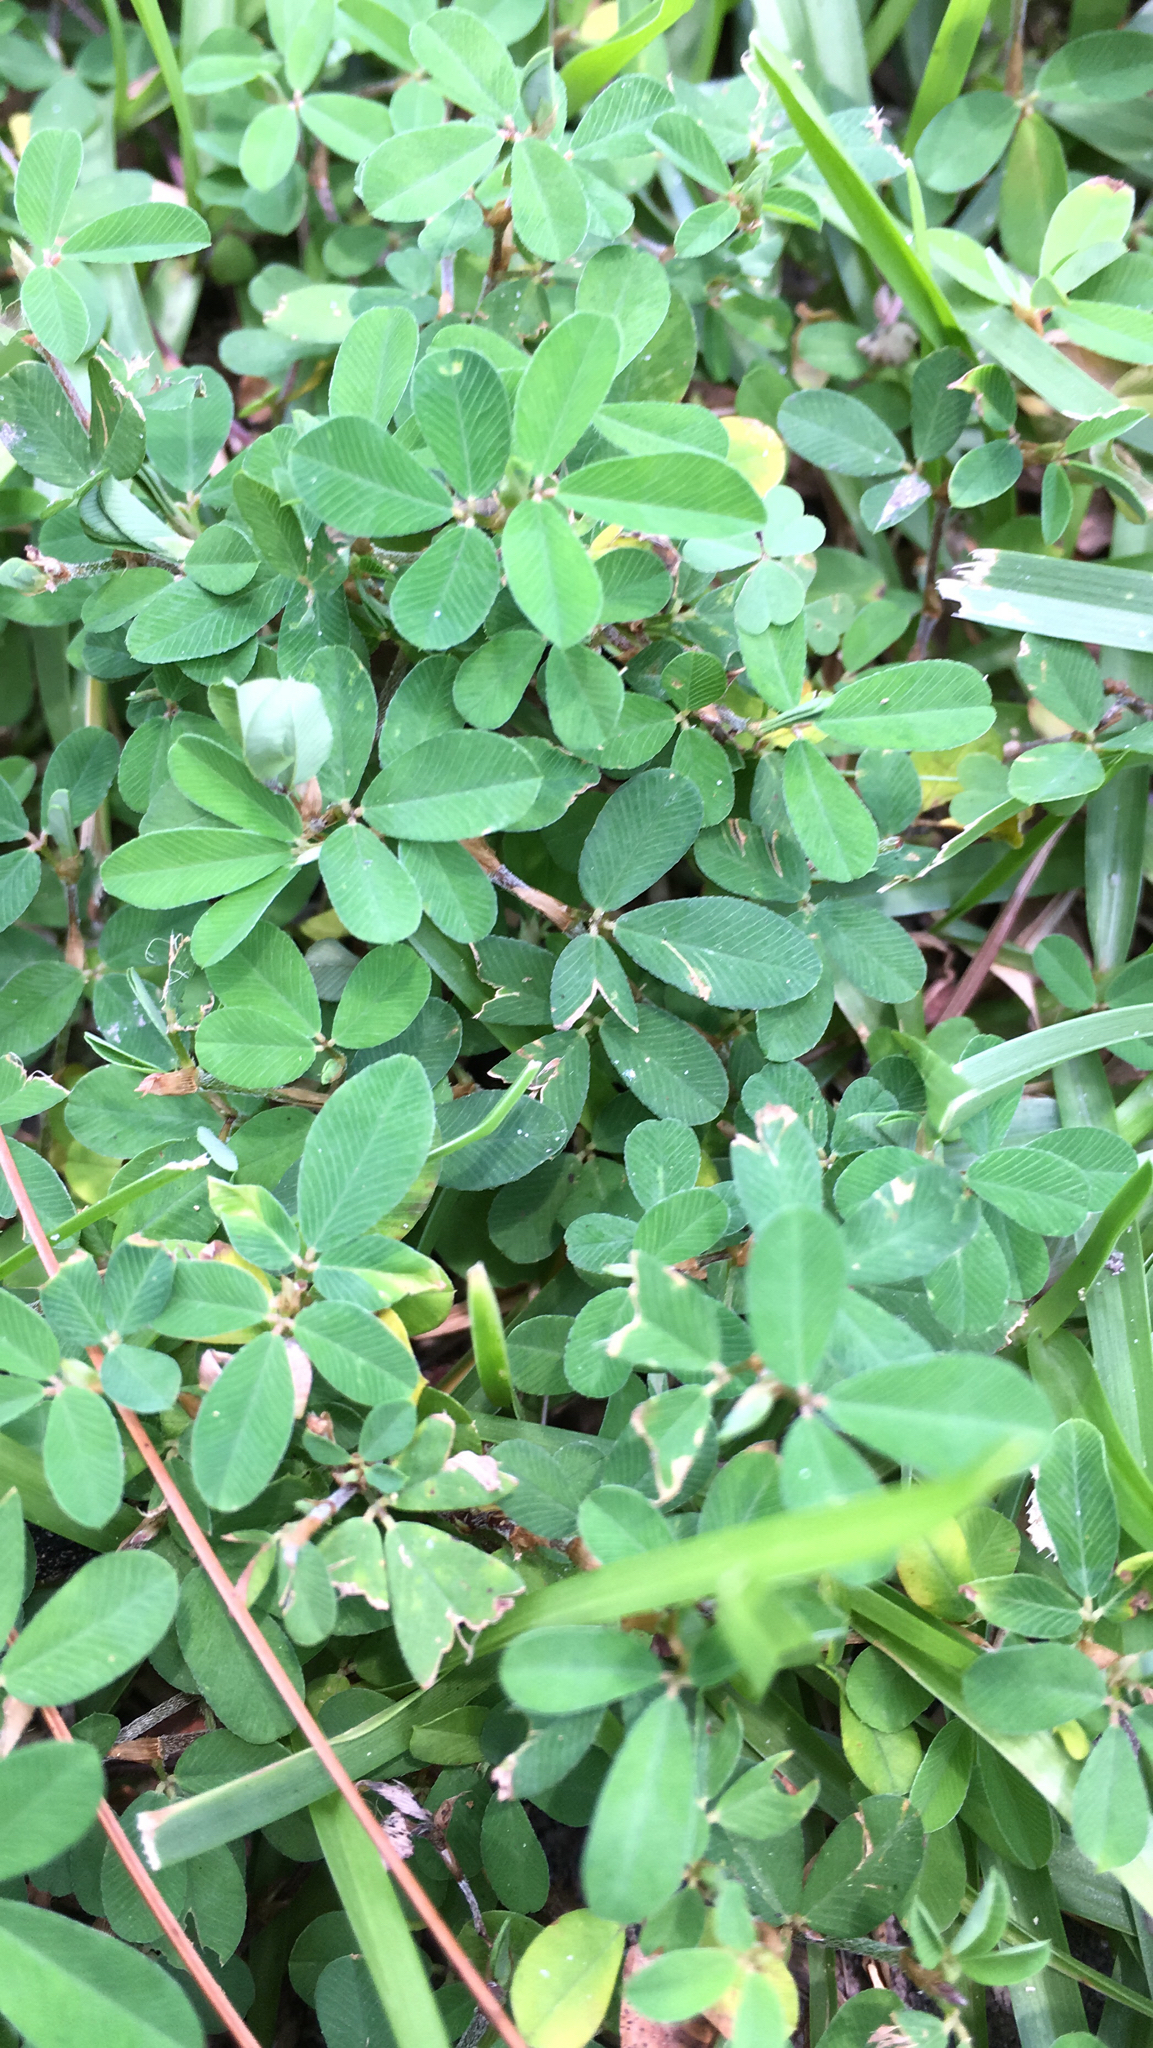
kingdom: Plantae
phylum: Tracheophyta
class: Magnoliopsida
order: Fabales
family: Fabaceae
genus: Kummerowia
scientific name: Kummerowia striata
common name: Japanese clover
